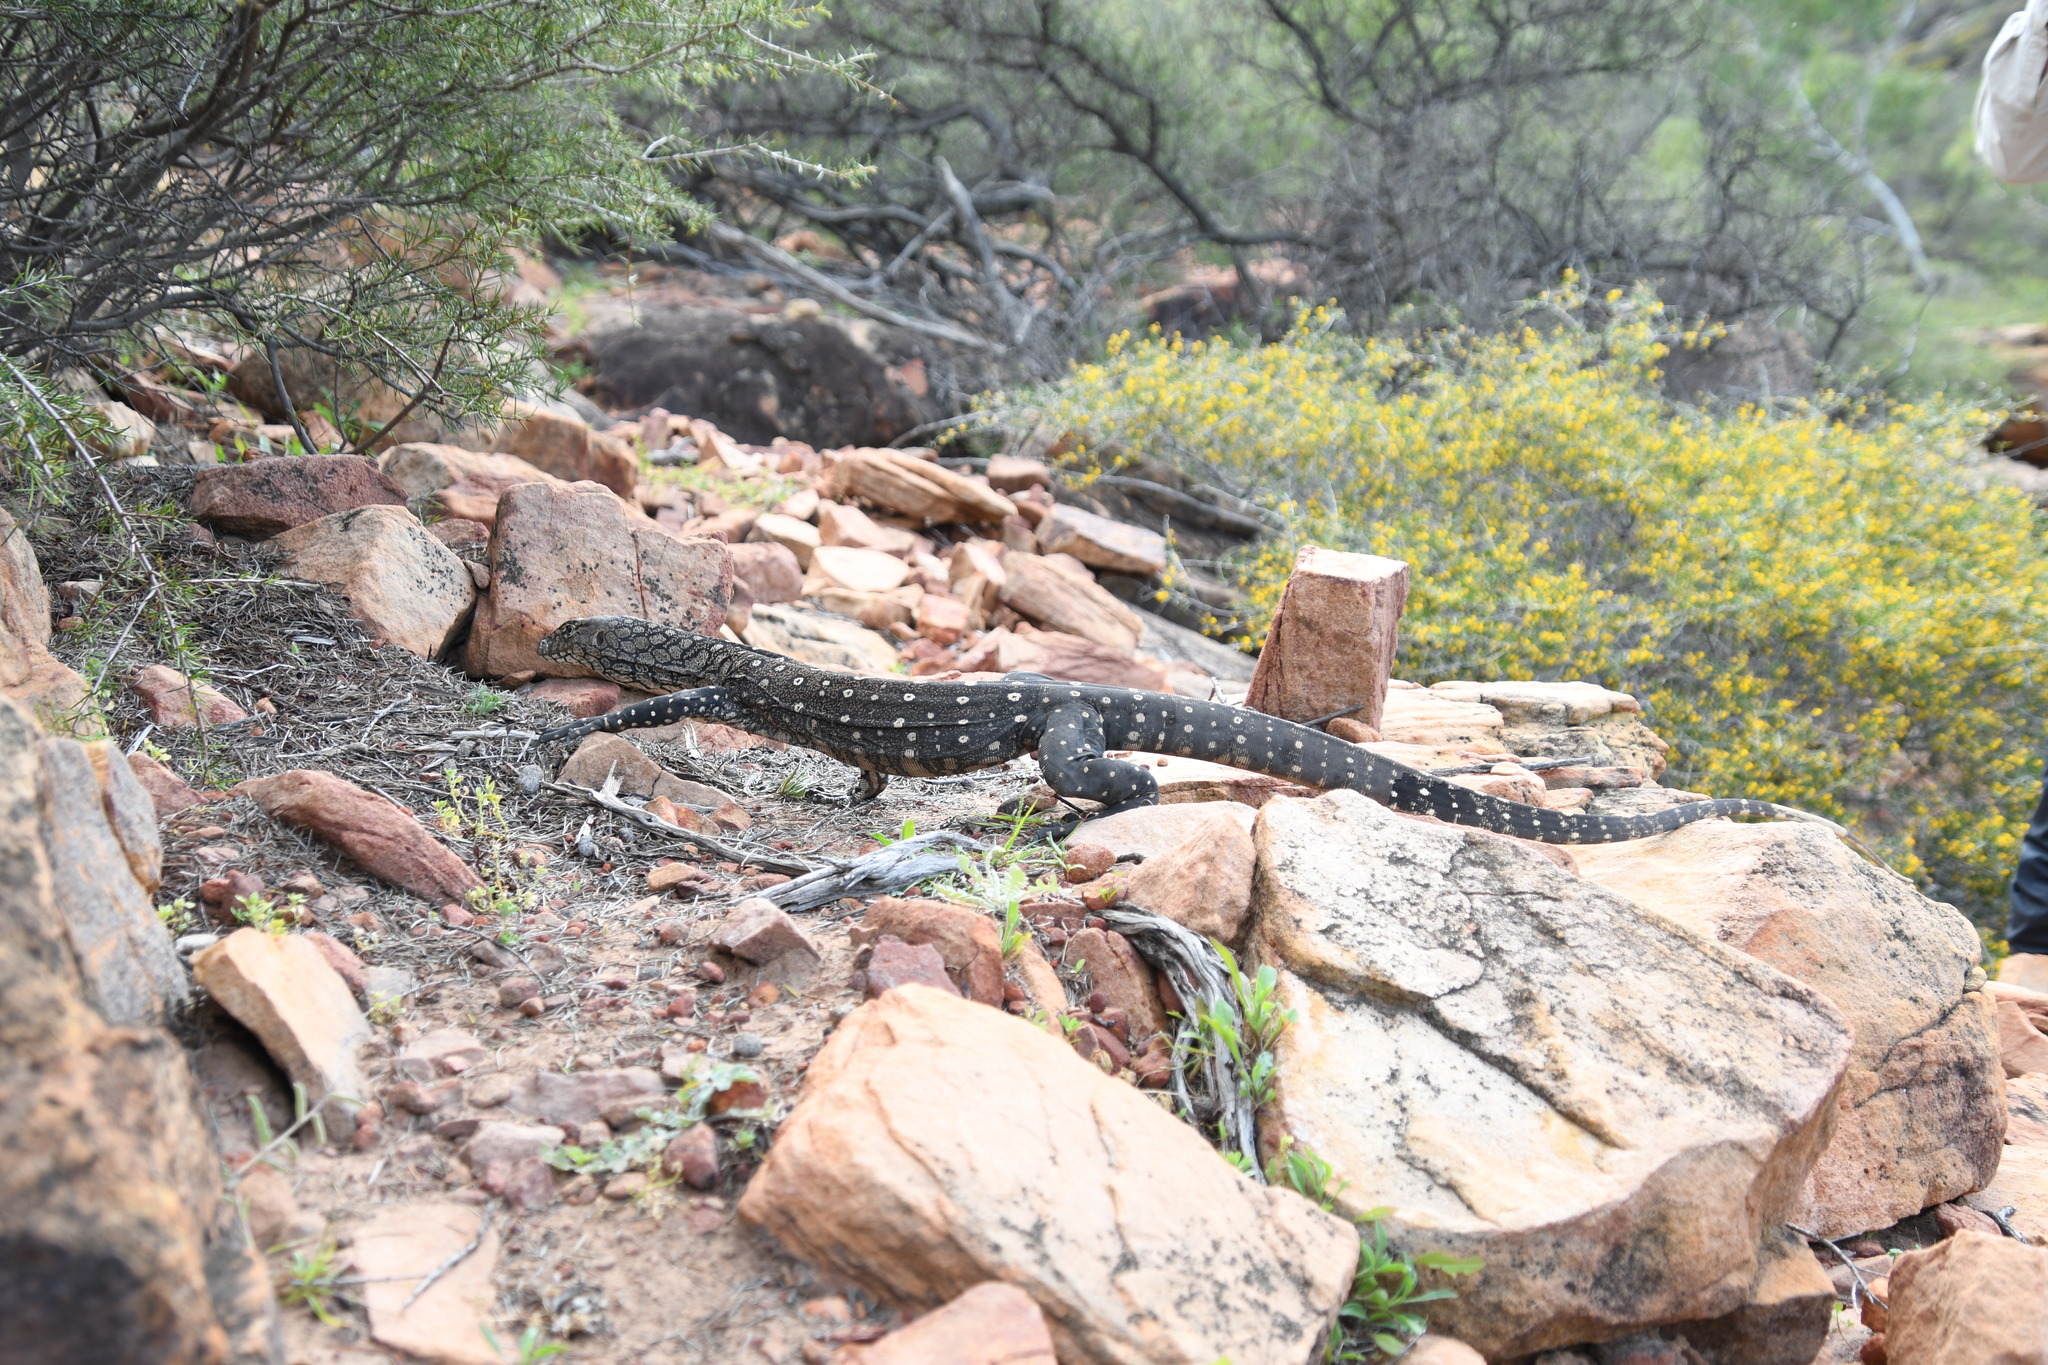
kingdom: Animalia
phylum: Chordata
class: Squamata
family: Varanidae
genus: Varanus
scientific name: Varanus giganteus
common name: Perentie
